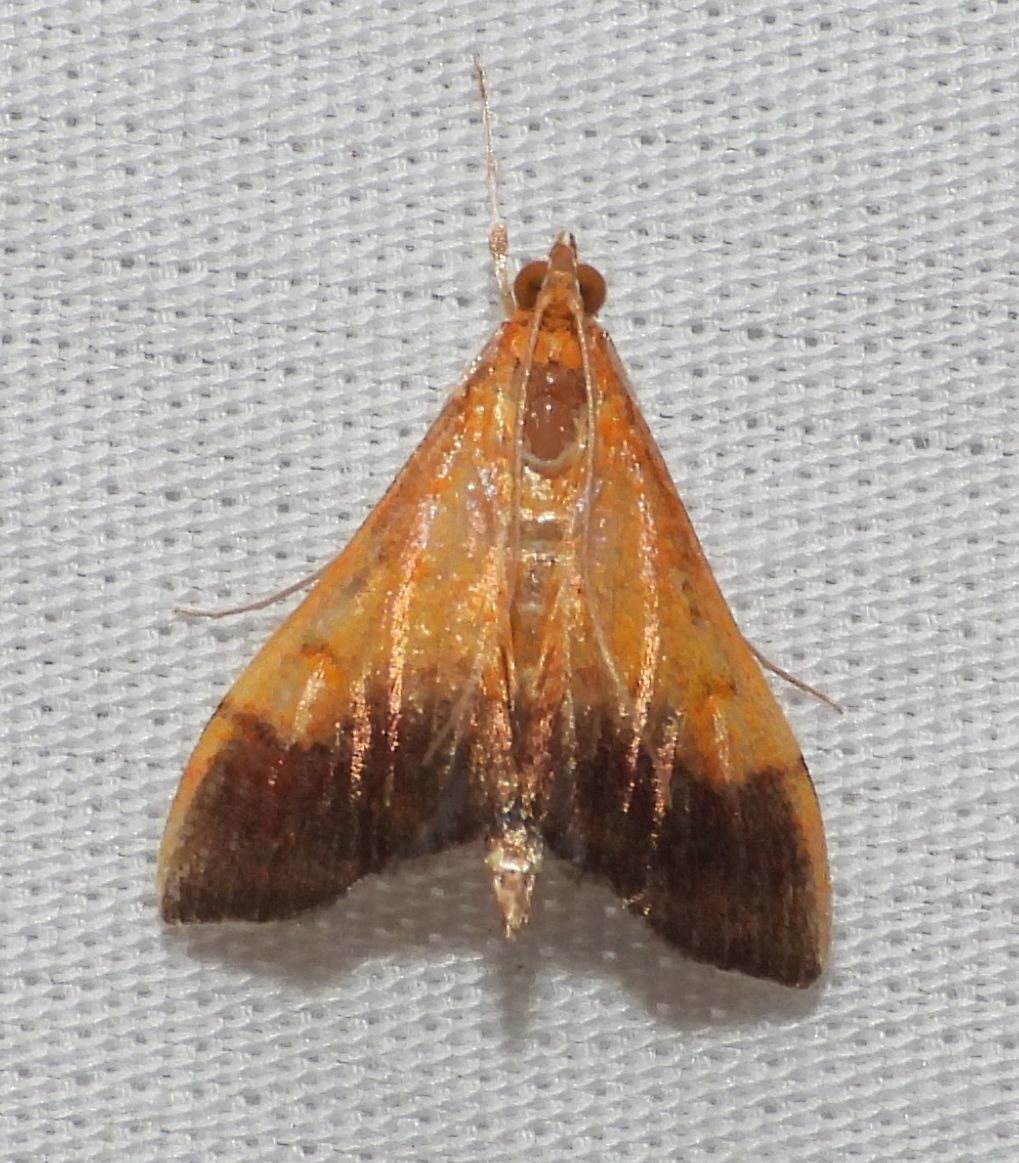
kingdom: Animalia
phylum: Arthropoda
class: Insecta
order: Lepidoptera
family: Crambidae
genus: Pyrausta
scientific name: Pyrausta bicoloralis
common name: Bicolored pyrausta moth
